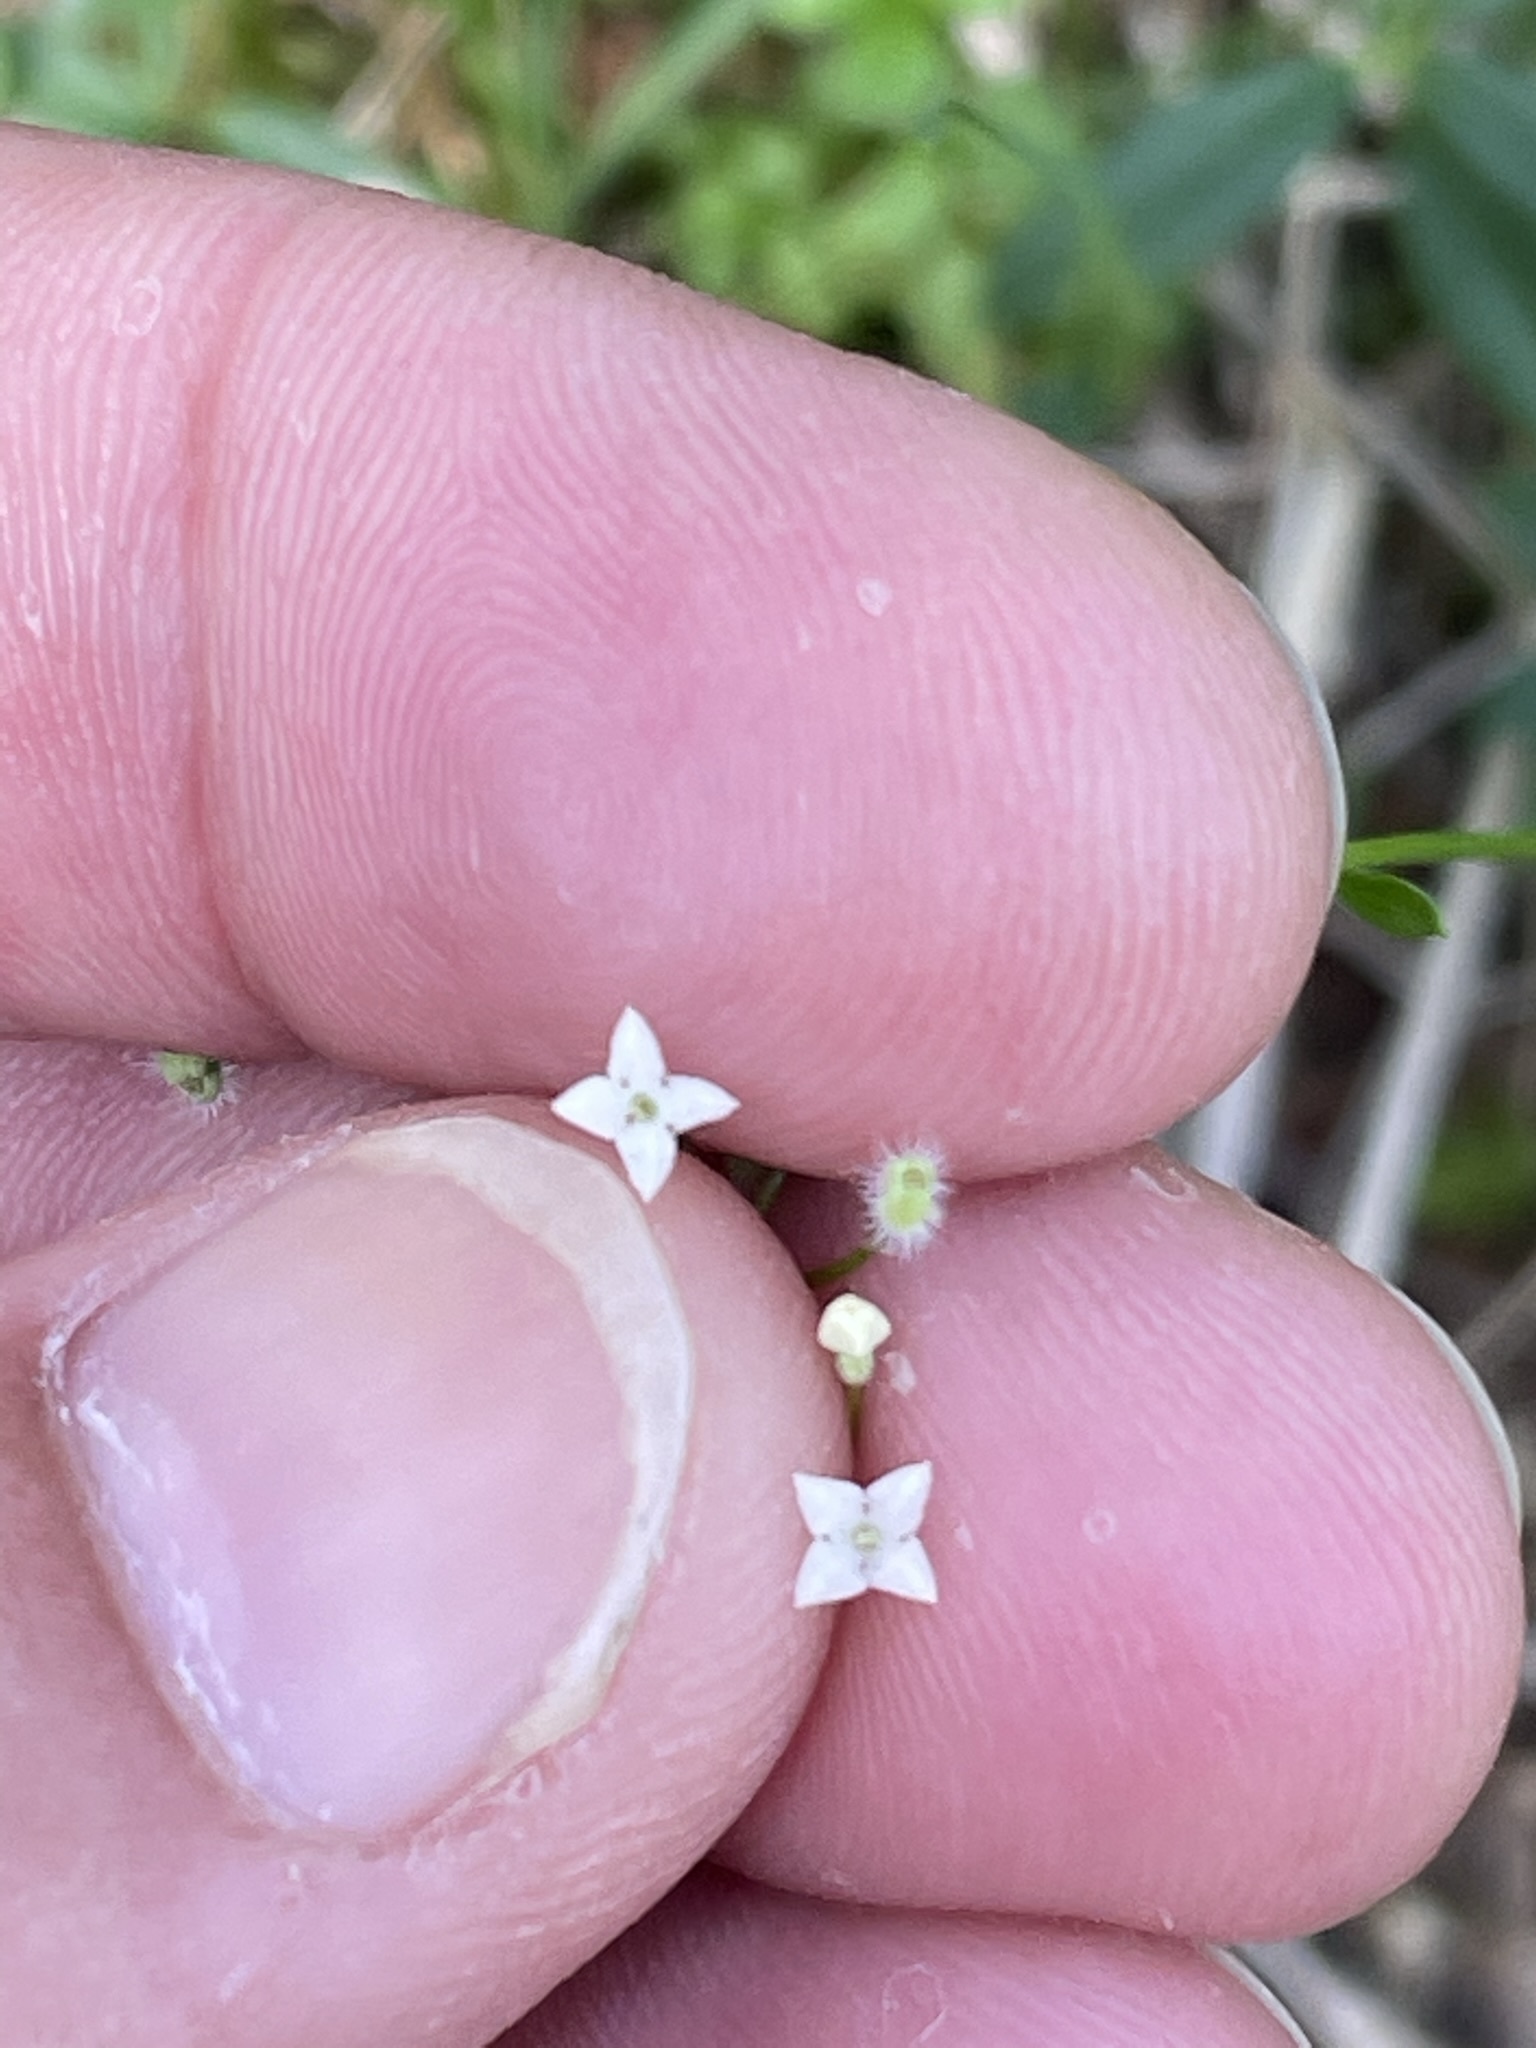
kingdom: Plantae
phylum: Tracheophyta
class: Magnoliopsida
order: Gentianales
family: Rubiaceae
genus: Galium
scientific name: Galium rotundifolium
